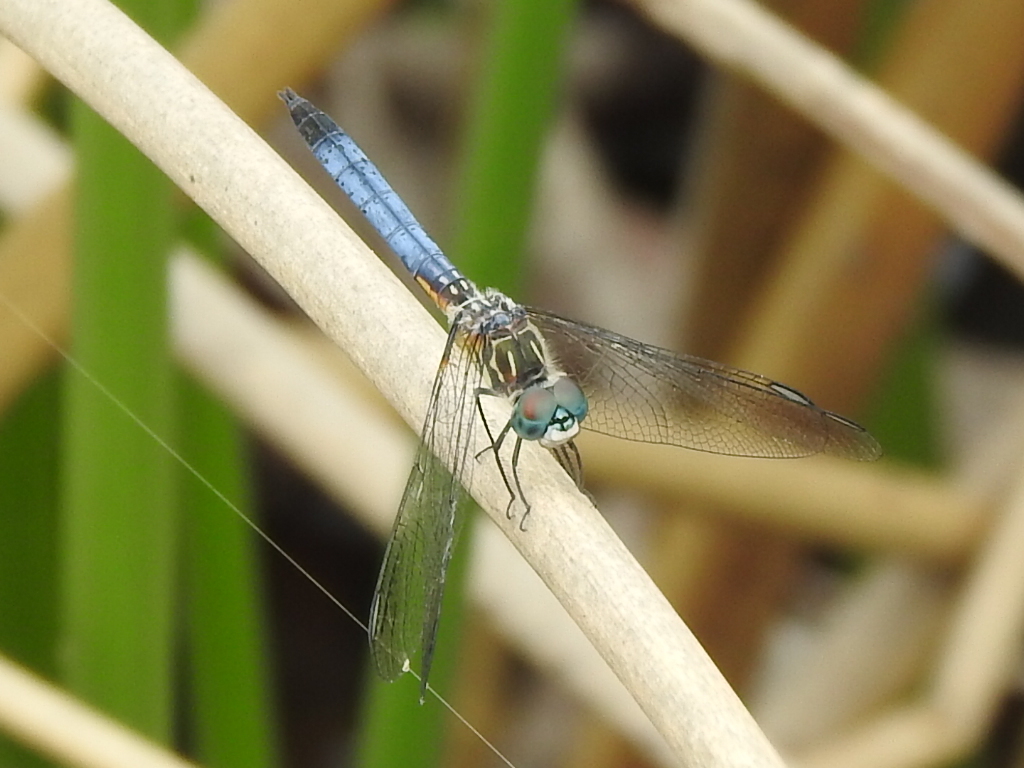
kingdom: Animalia
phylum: Arthropoda
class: Insecta
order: Odonata
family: Libellulidae
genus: Pachydiplax
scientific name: Pachydiplax longipennis
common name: Blue dasher
